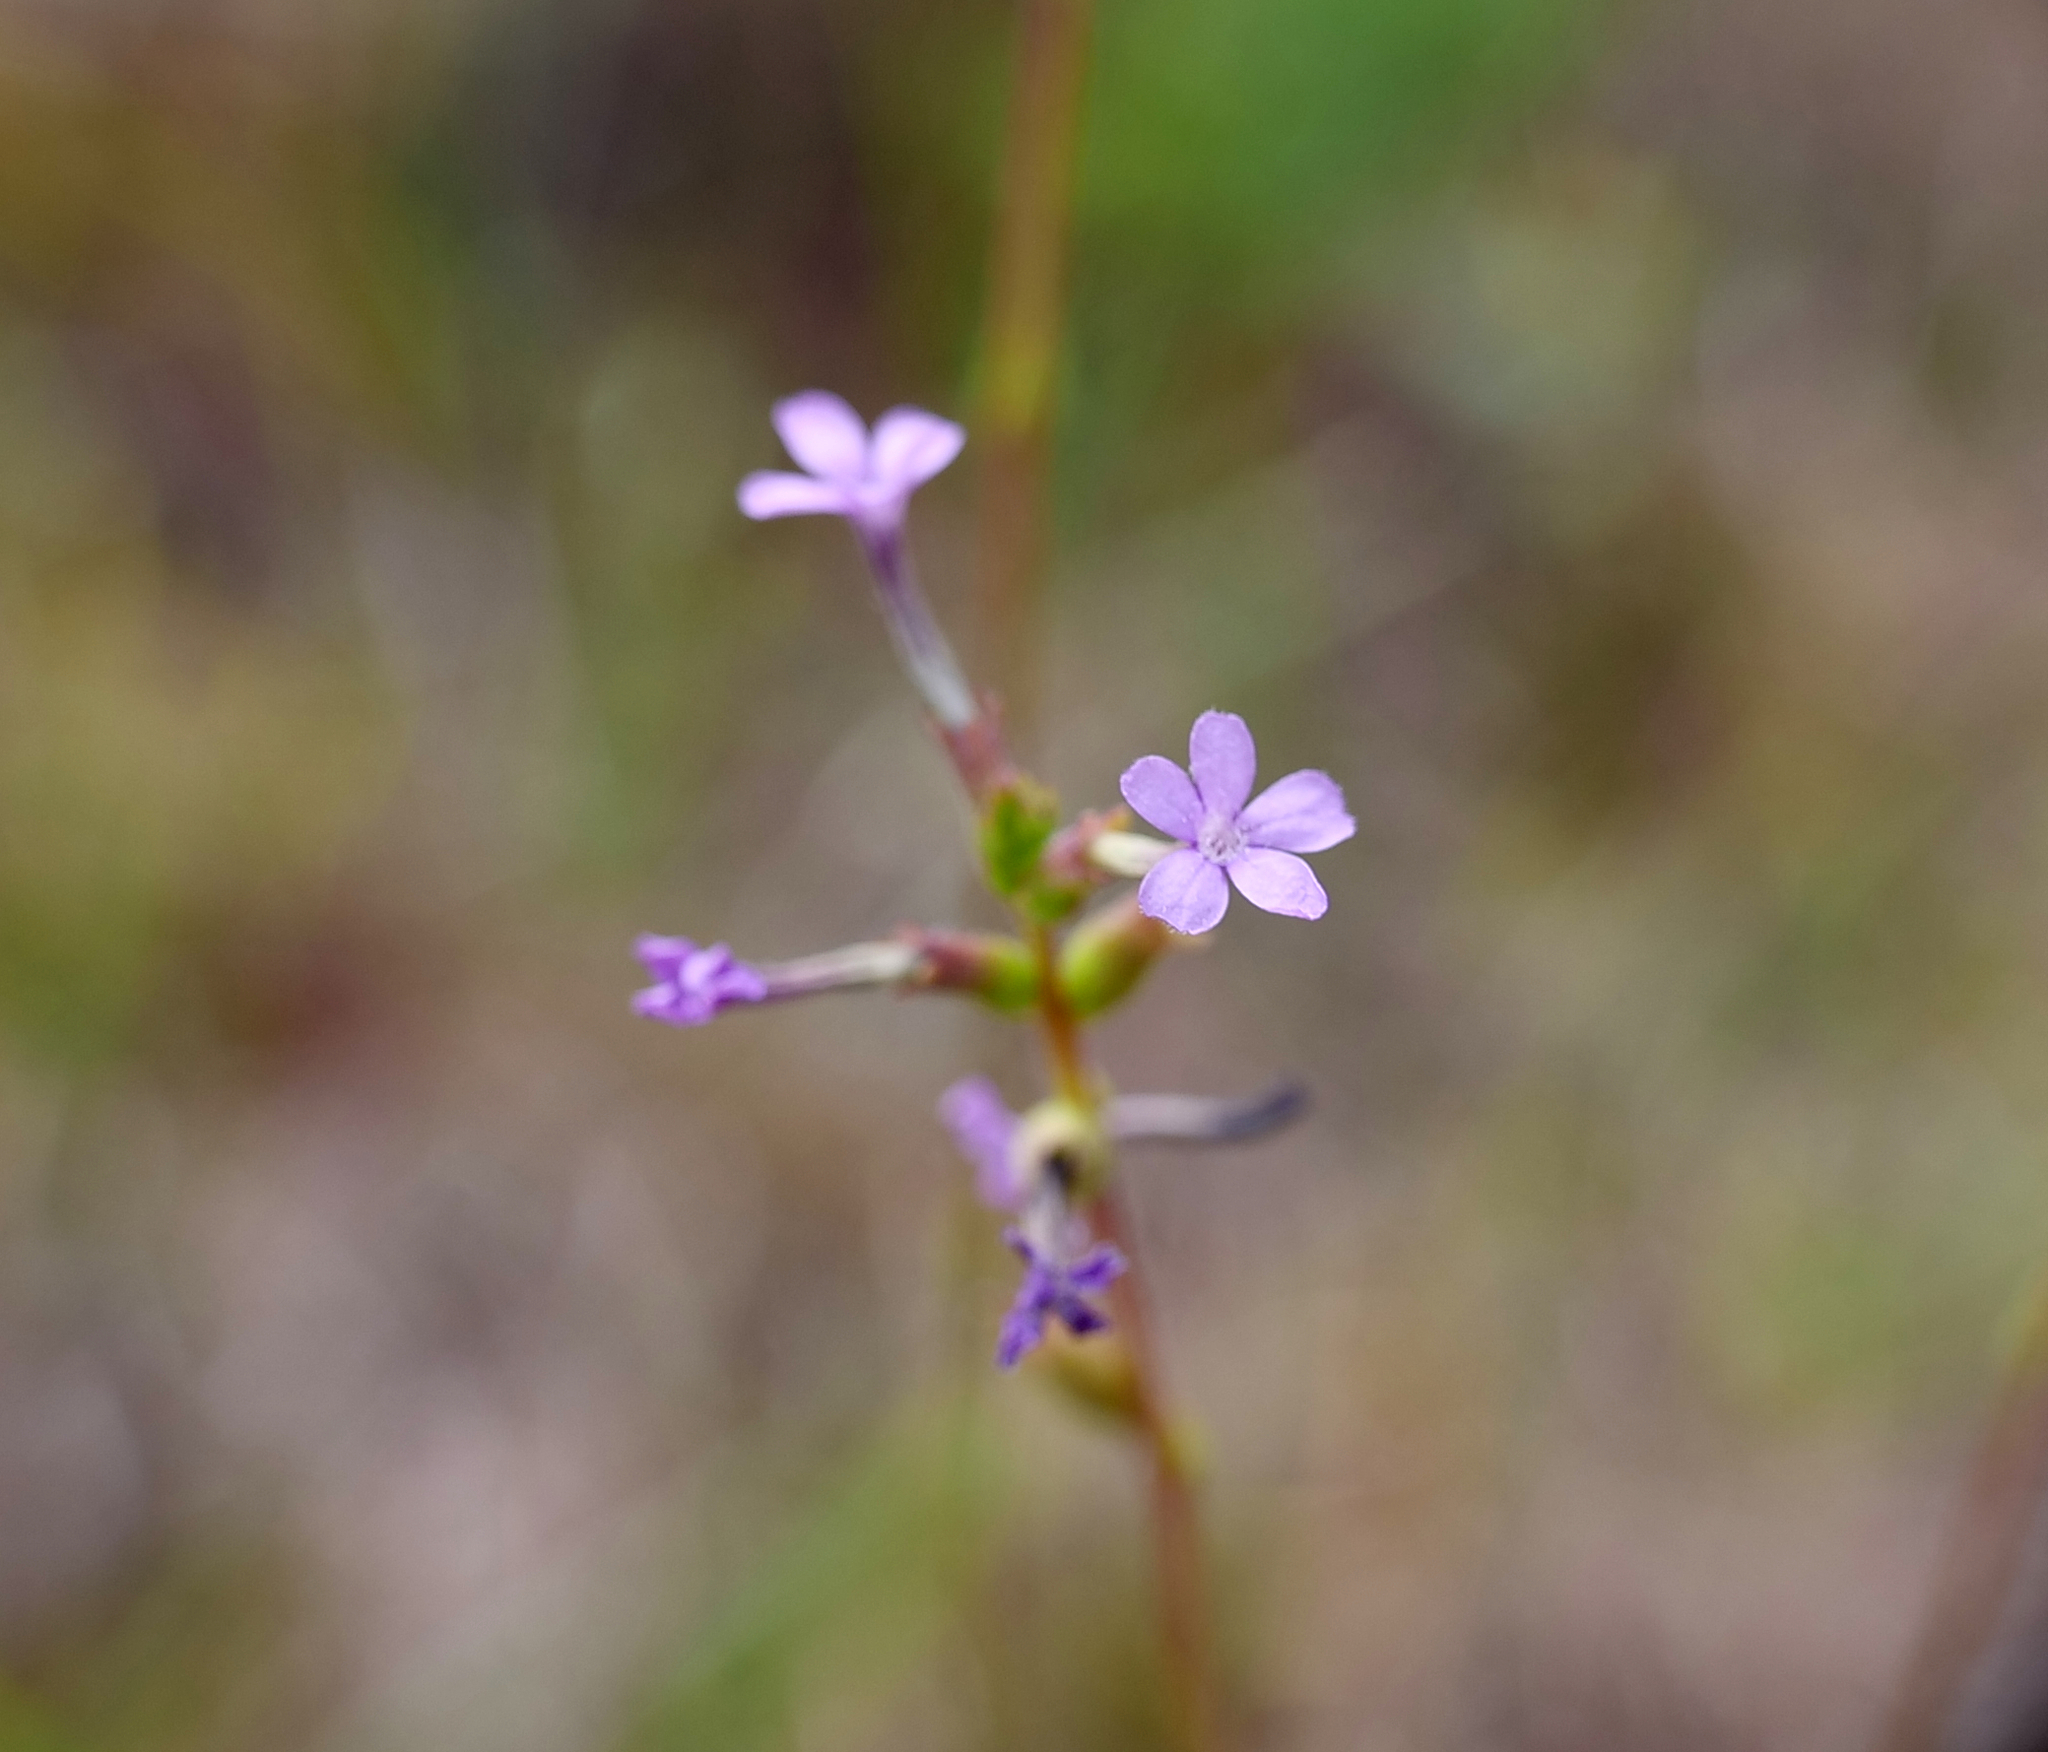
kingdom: Plantae
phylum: Tracheophyta
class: Magnoliopsida
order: Lamiales
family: Orobanchaceae
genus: Buchnera
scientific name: Buchnera floridana
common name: Florida bluehearts
